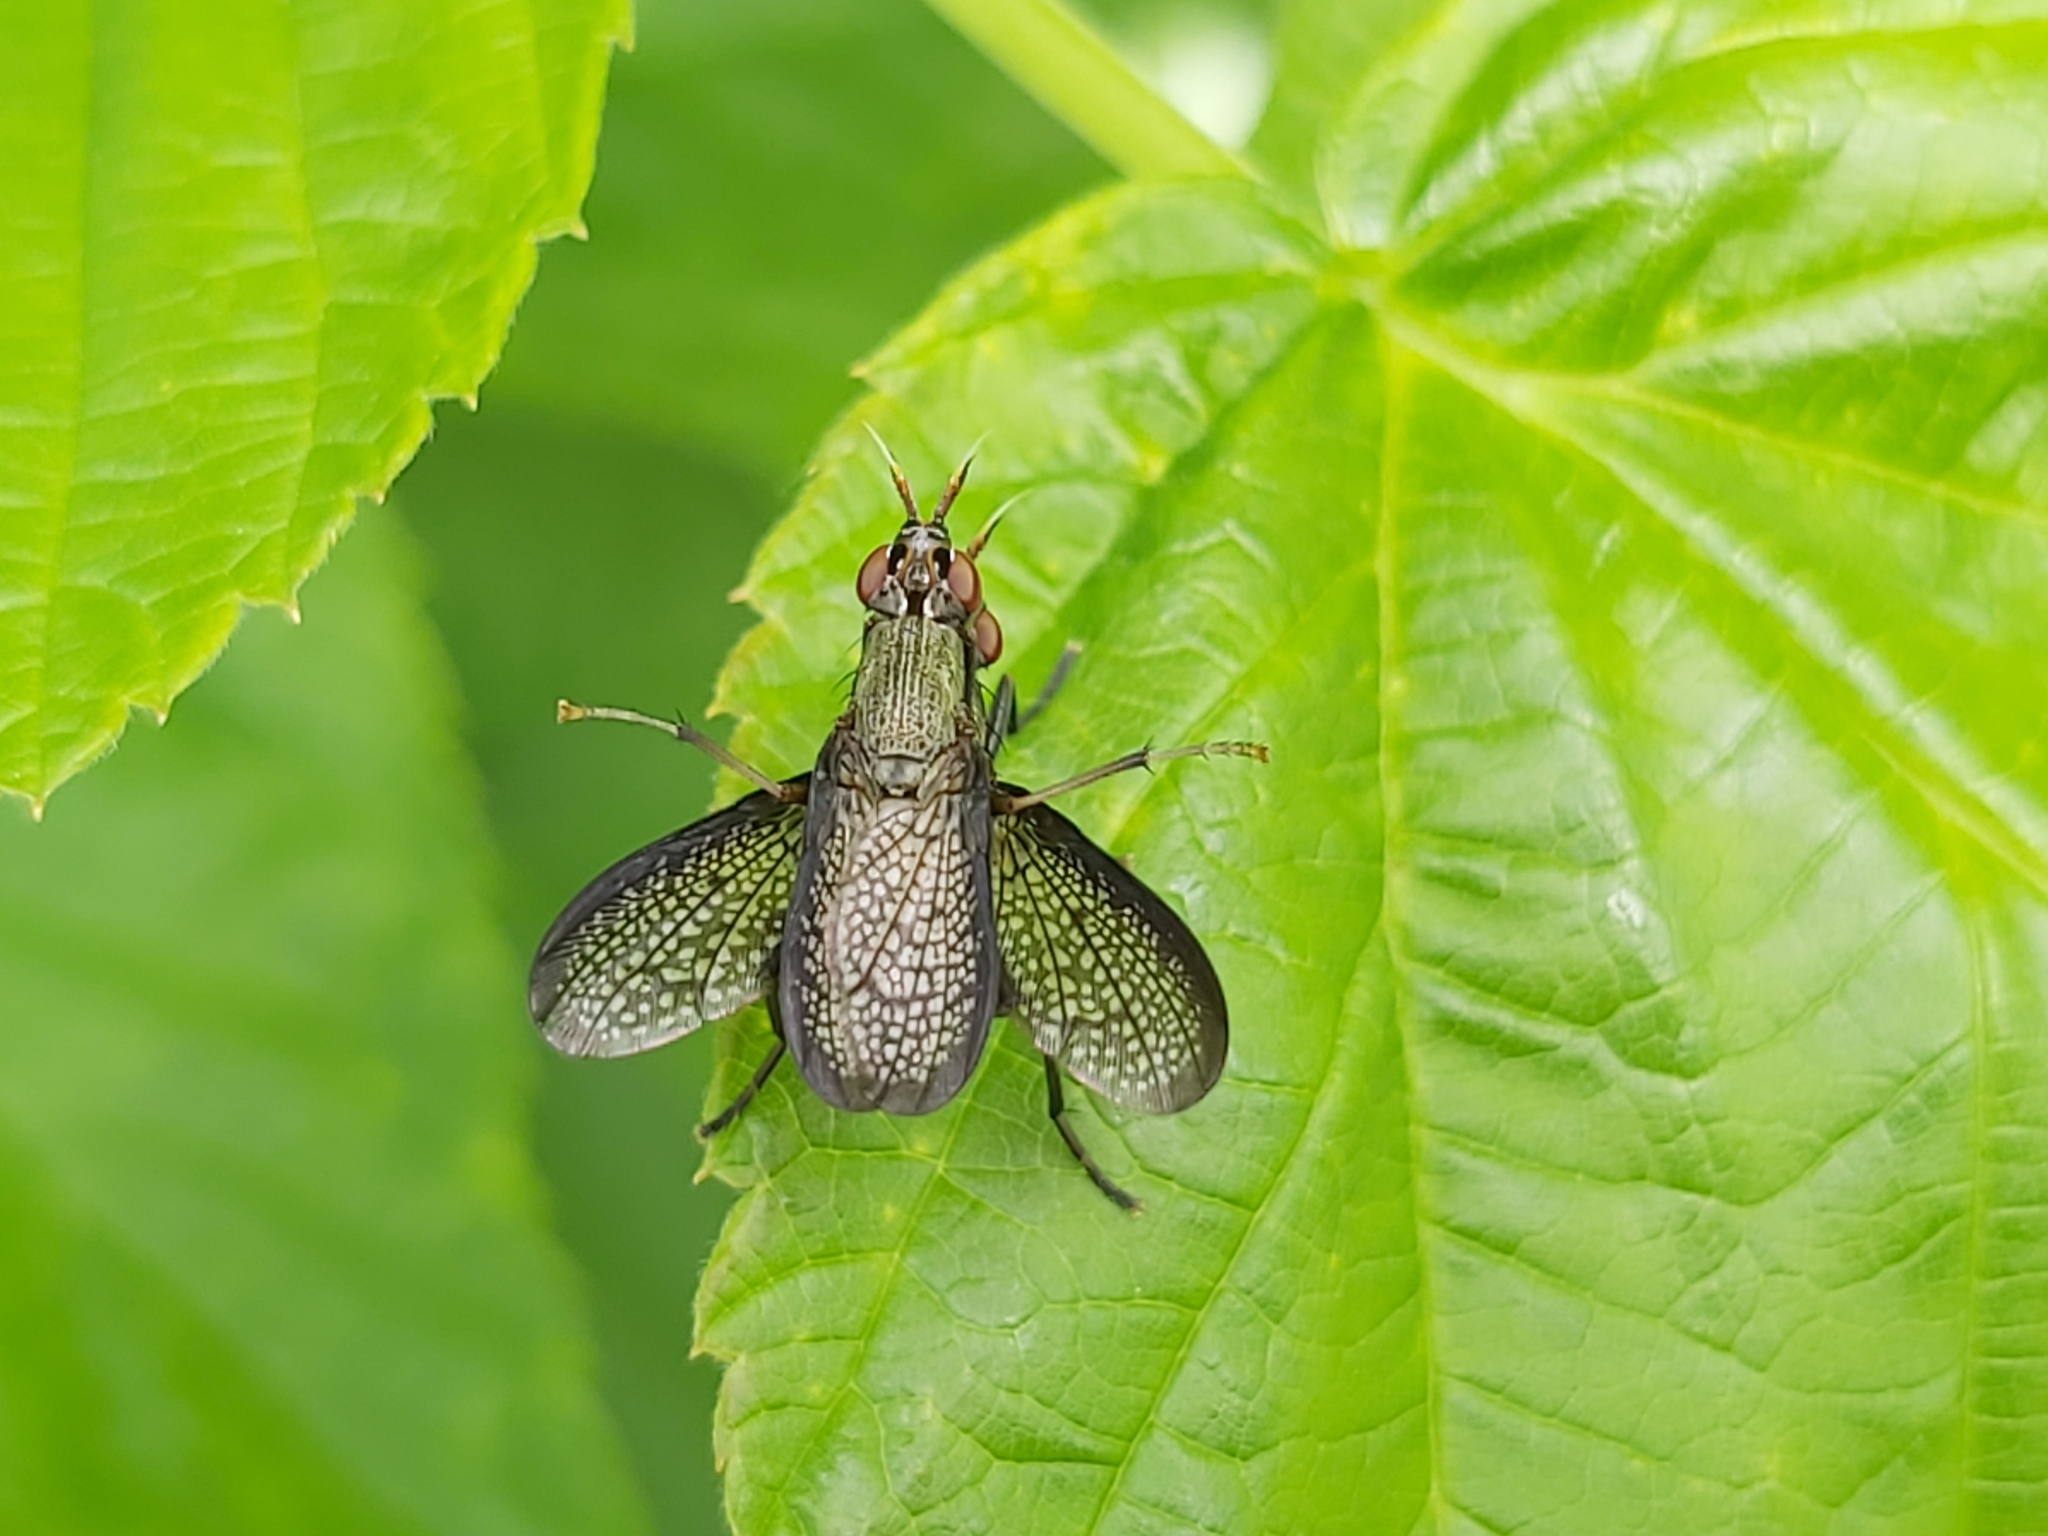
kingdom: Animalia
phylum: Arthropoda
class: Insecta
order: Diptera
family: Sciomyzidae
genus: Coremacera
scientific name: Coremacera marginata
